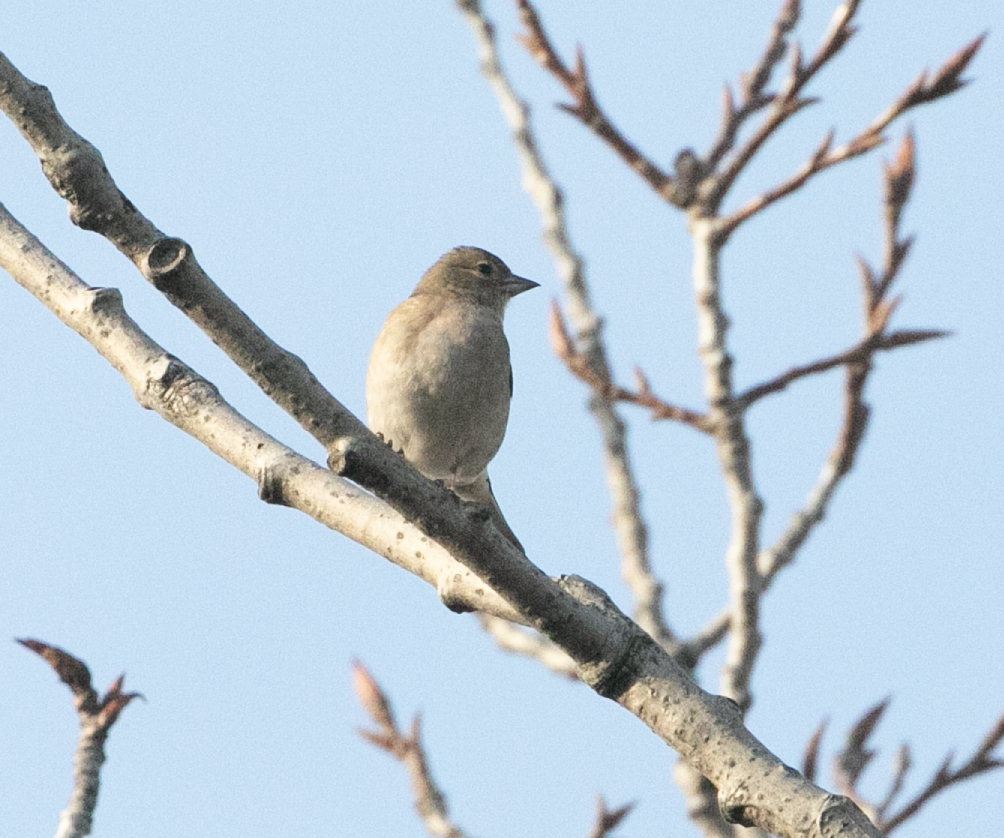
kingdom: Animalia
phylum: Chordata
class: Aves
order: Passeriformes
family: Fringillidae
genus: Fringilla
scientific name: Fringilla coelebs
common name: Common chaffinch
